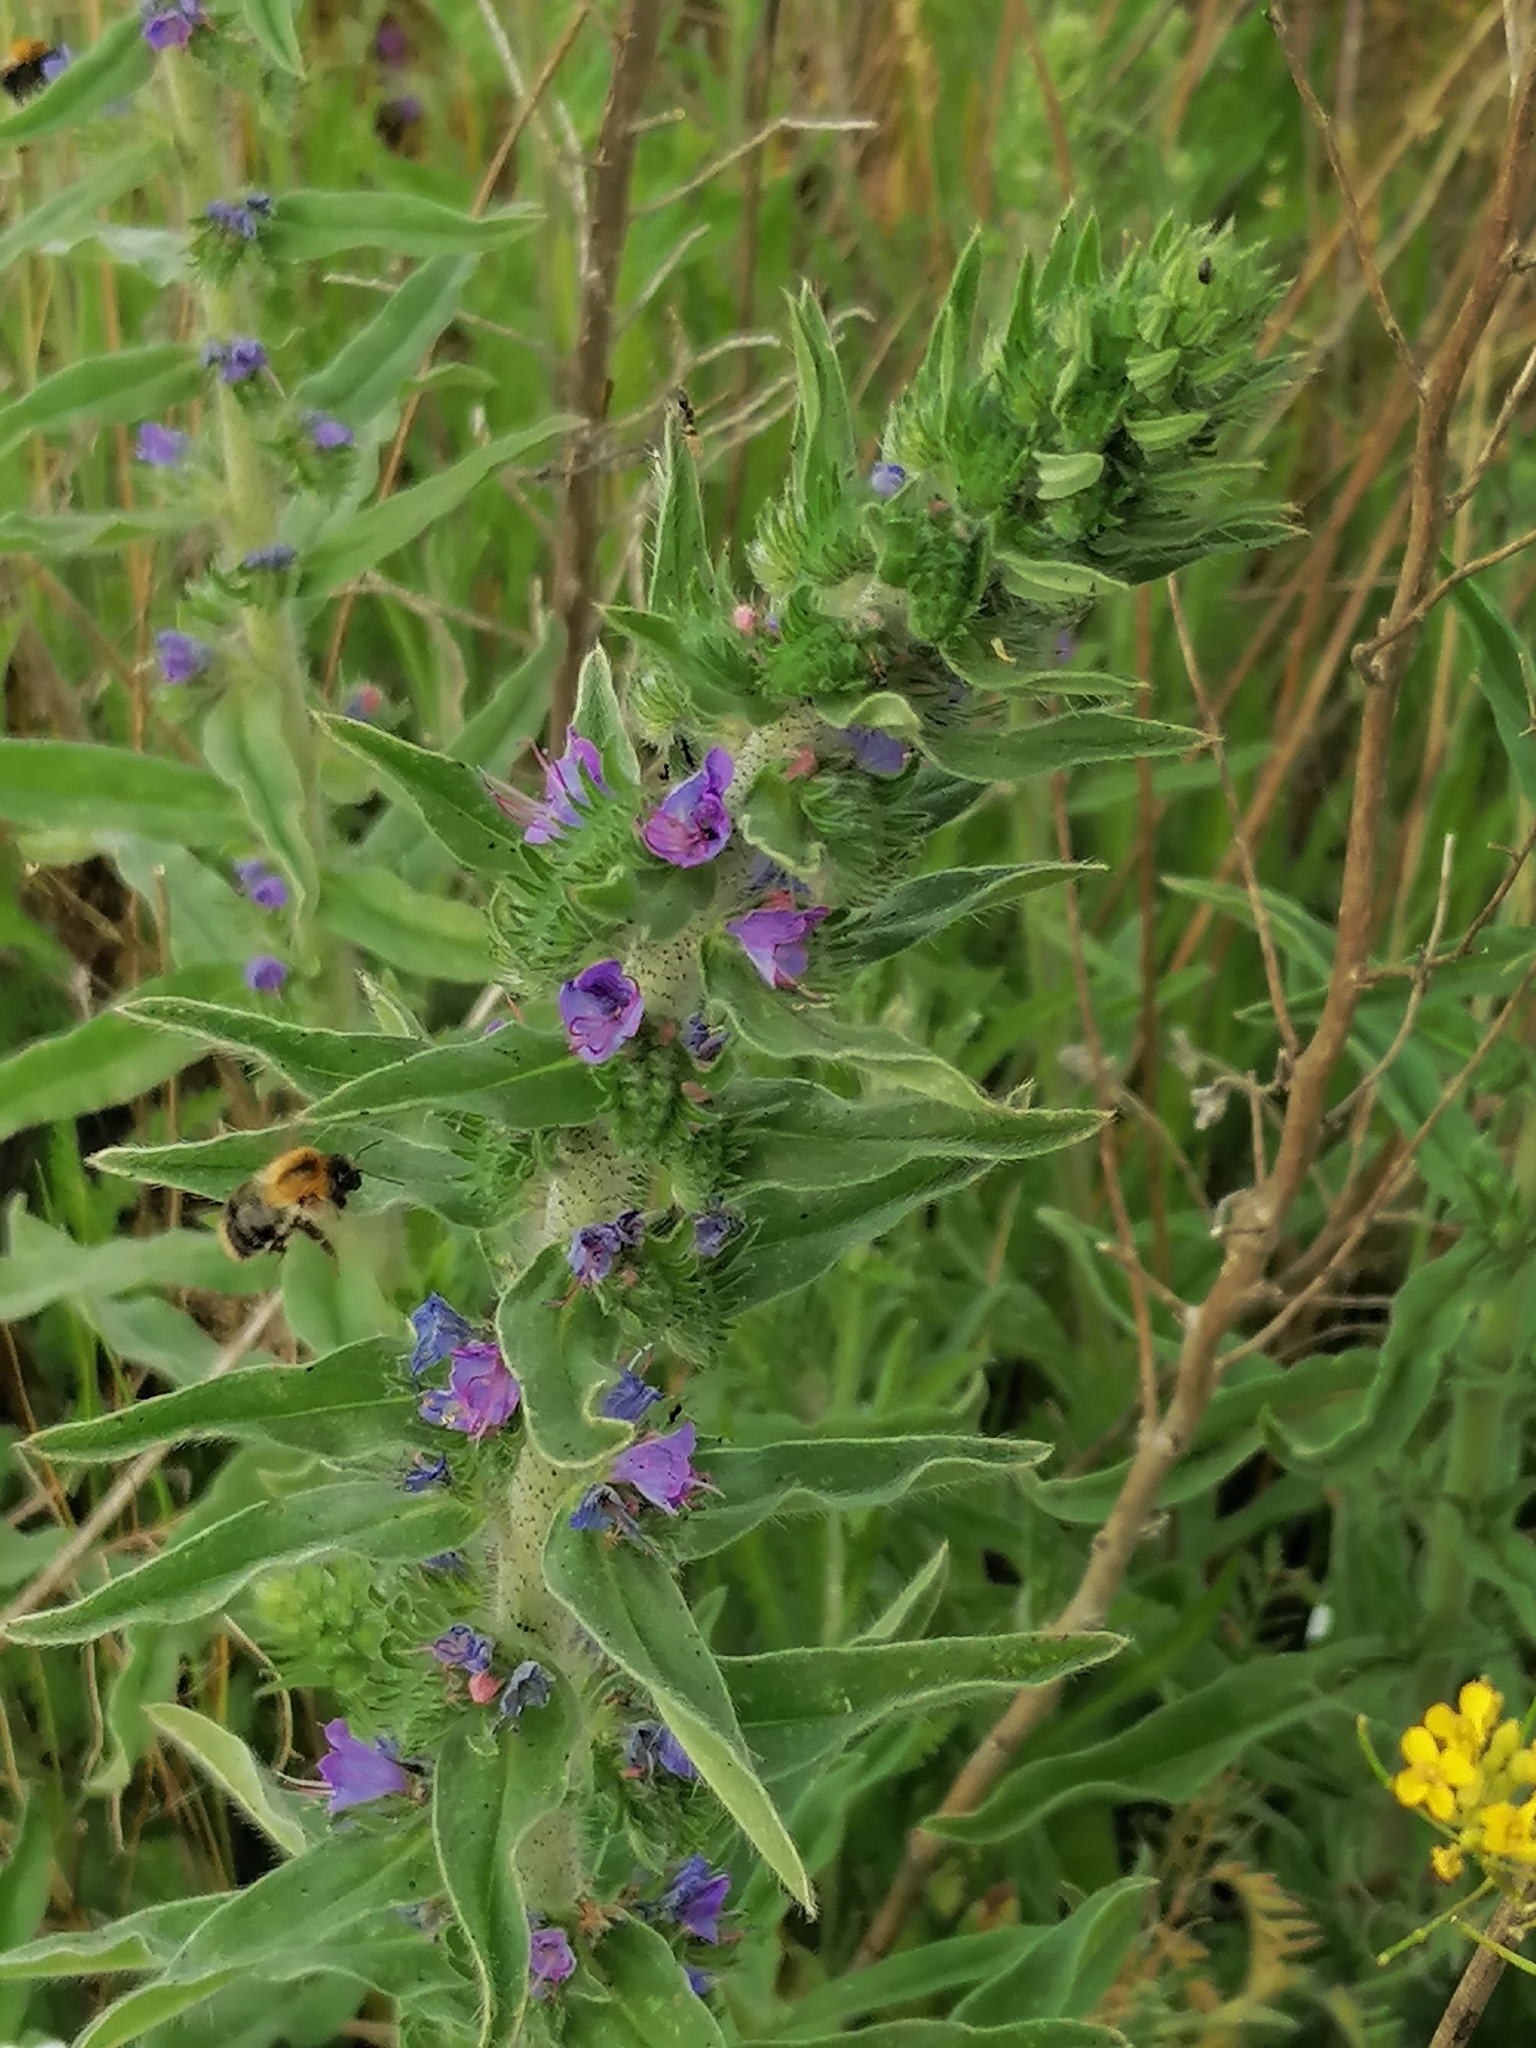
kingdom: Plantae
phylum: Tracheophyta
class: Magnoliopsida
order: Boraginales
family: Boraginaceae
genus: Echium
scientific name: Echium vulgare
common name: Common viper's bugloss
